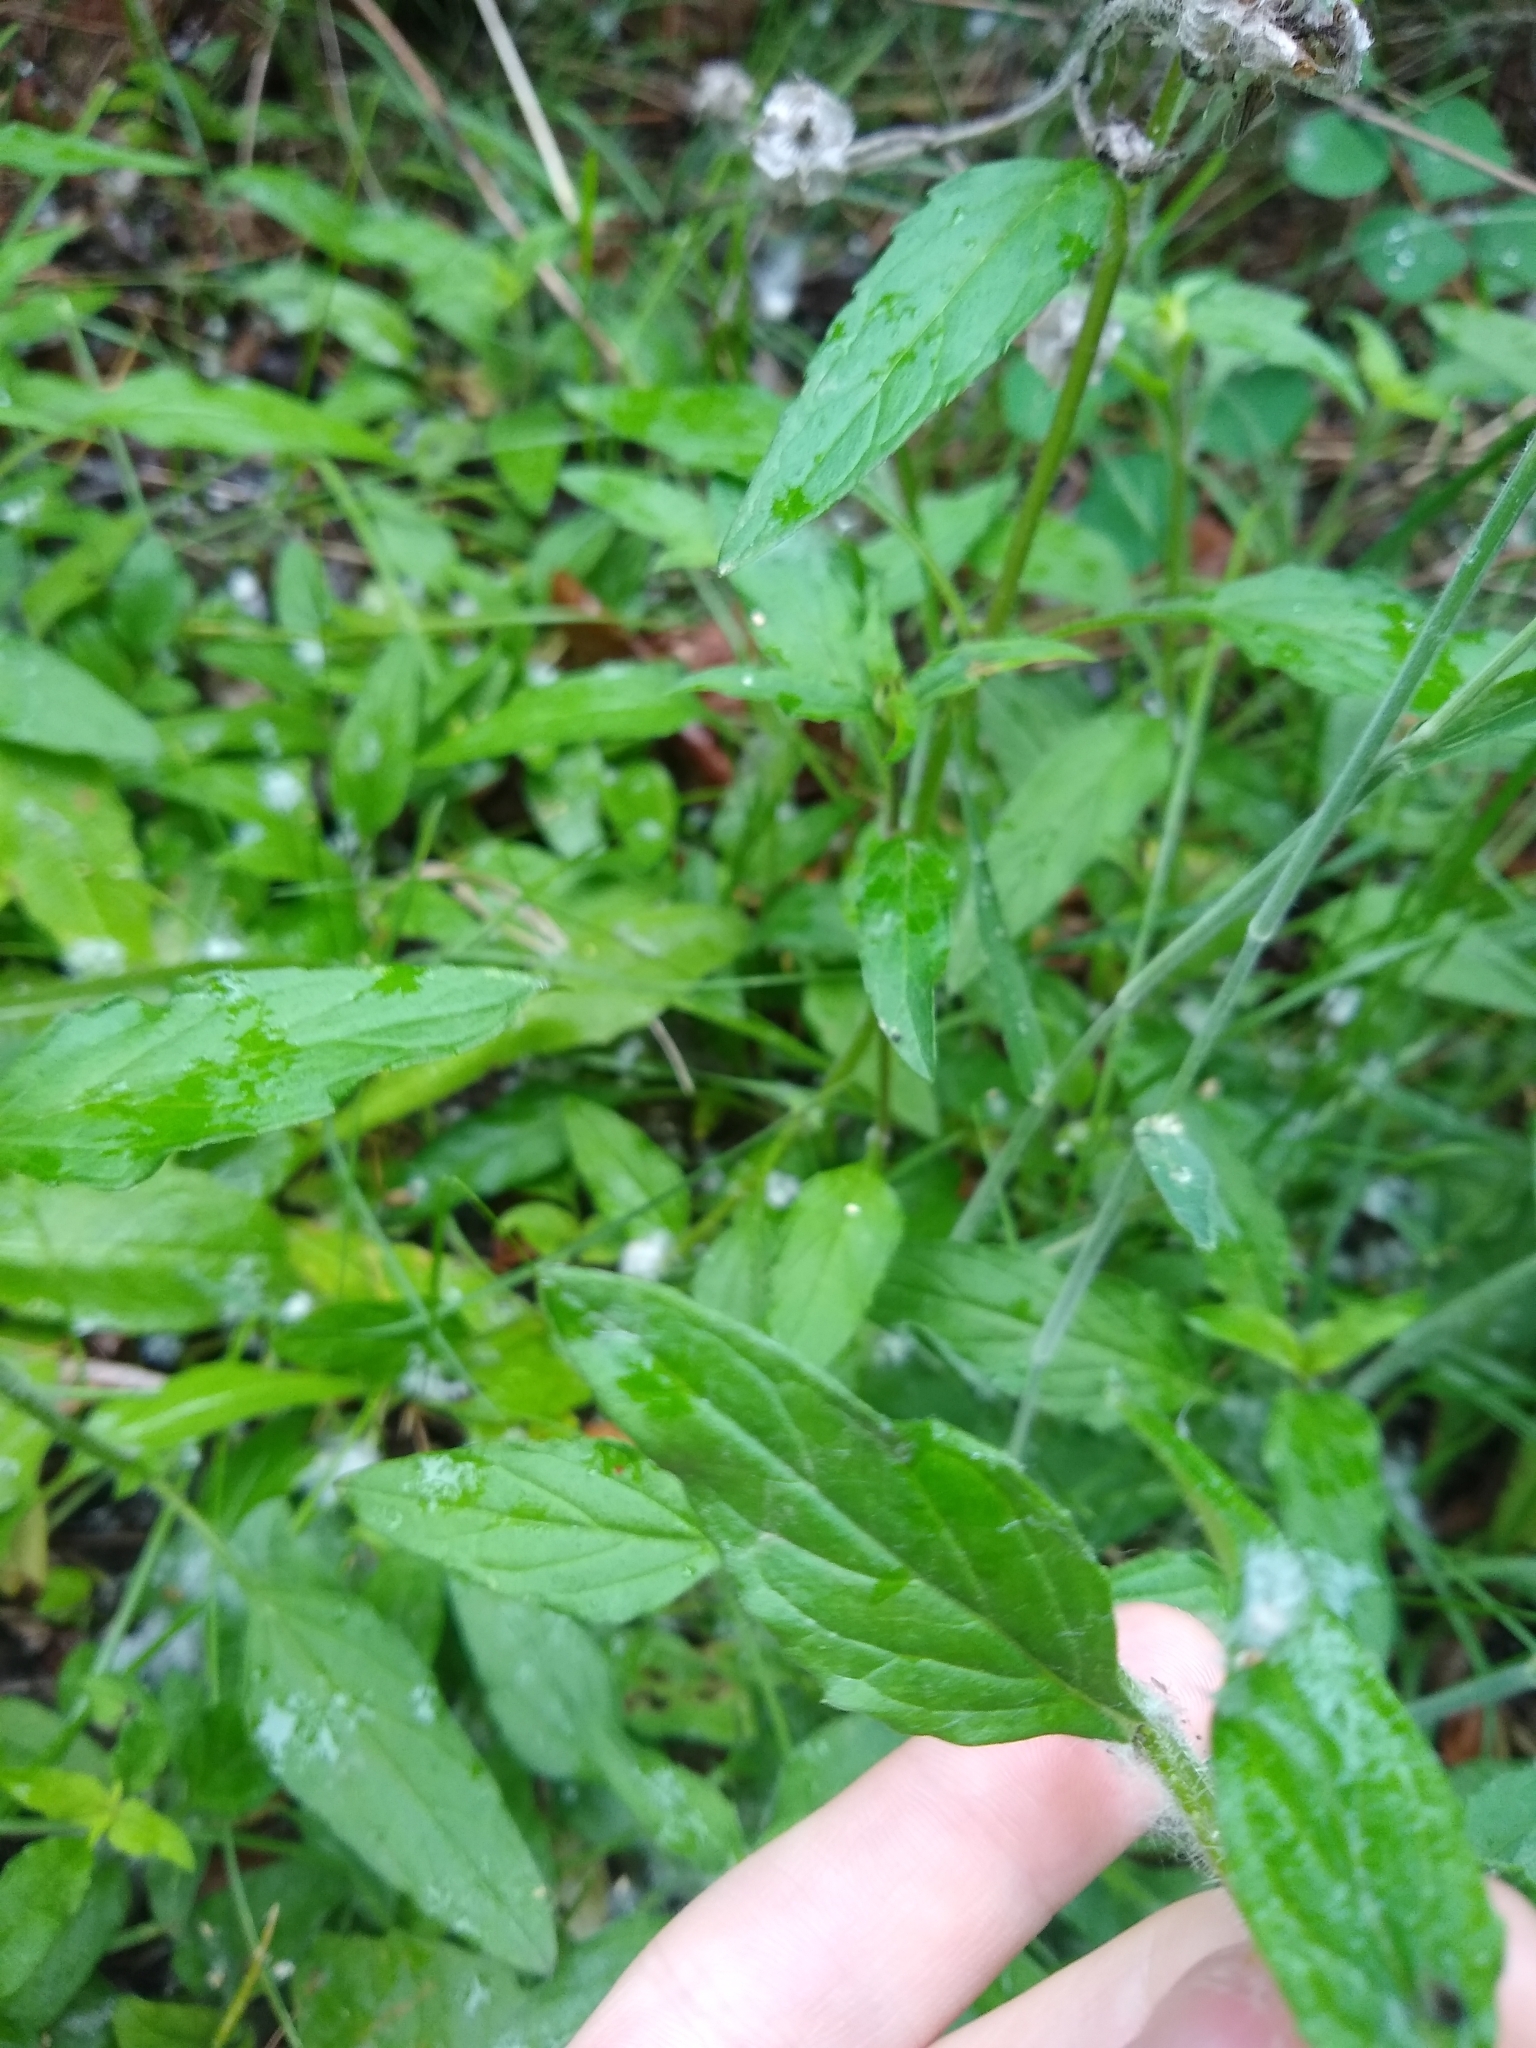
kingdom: Plantae
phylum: Tracheophyta
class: Magnoliopsida
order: Lamiales
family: Lamiaceae
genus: Prunella
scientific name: Prunella vulgaris
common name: Heal-all
